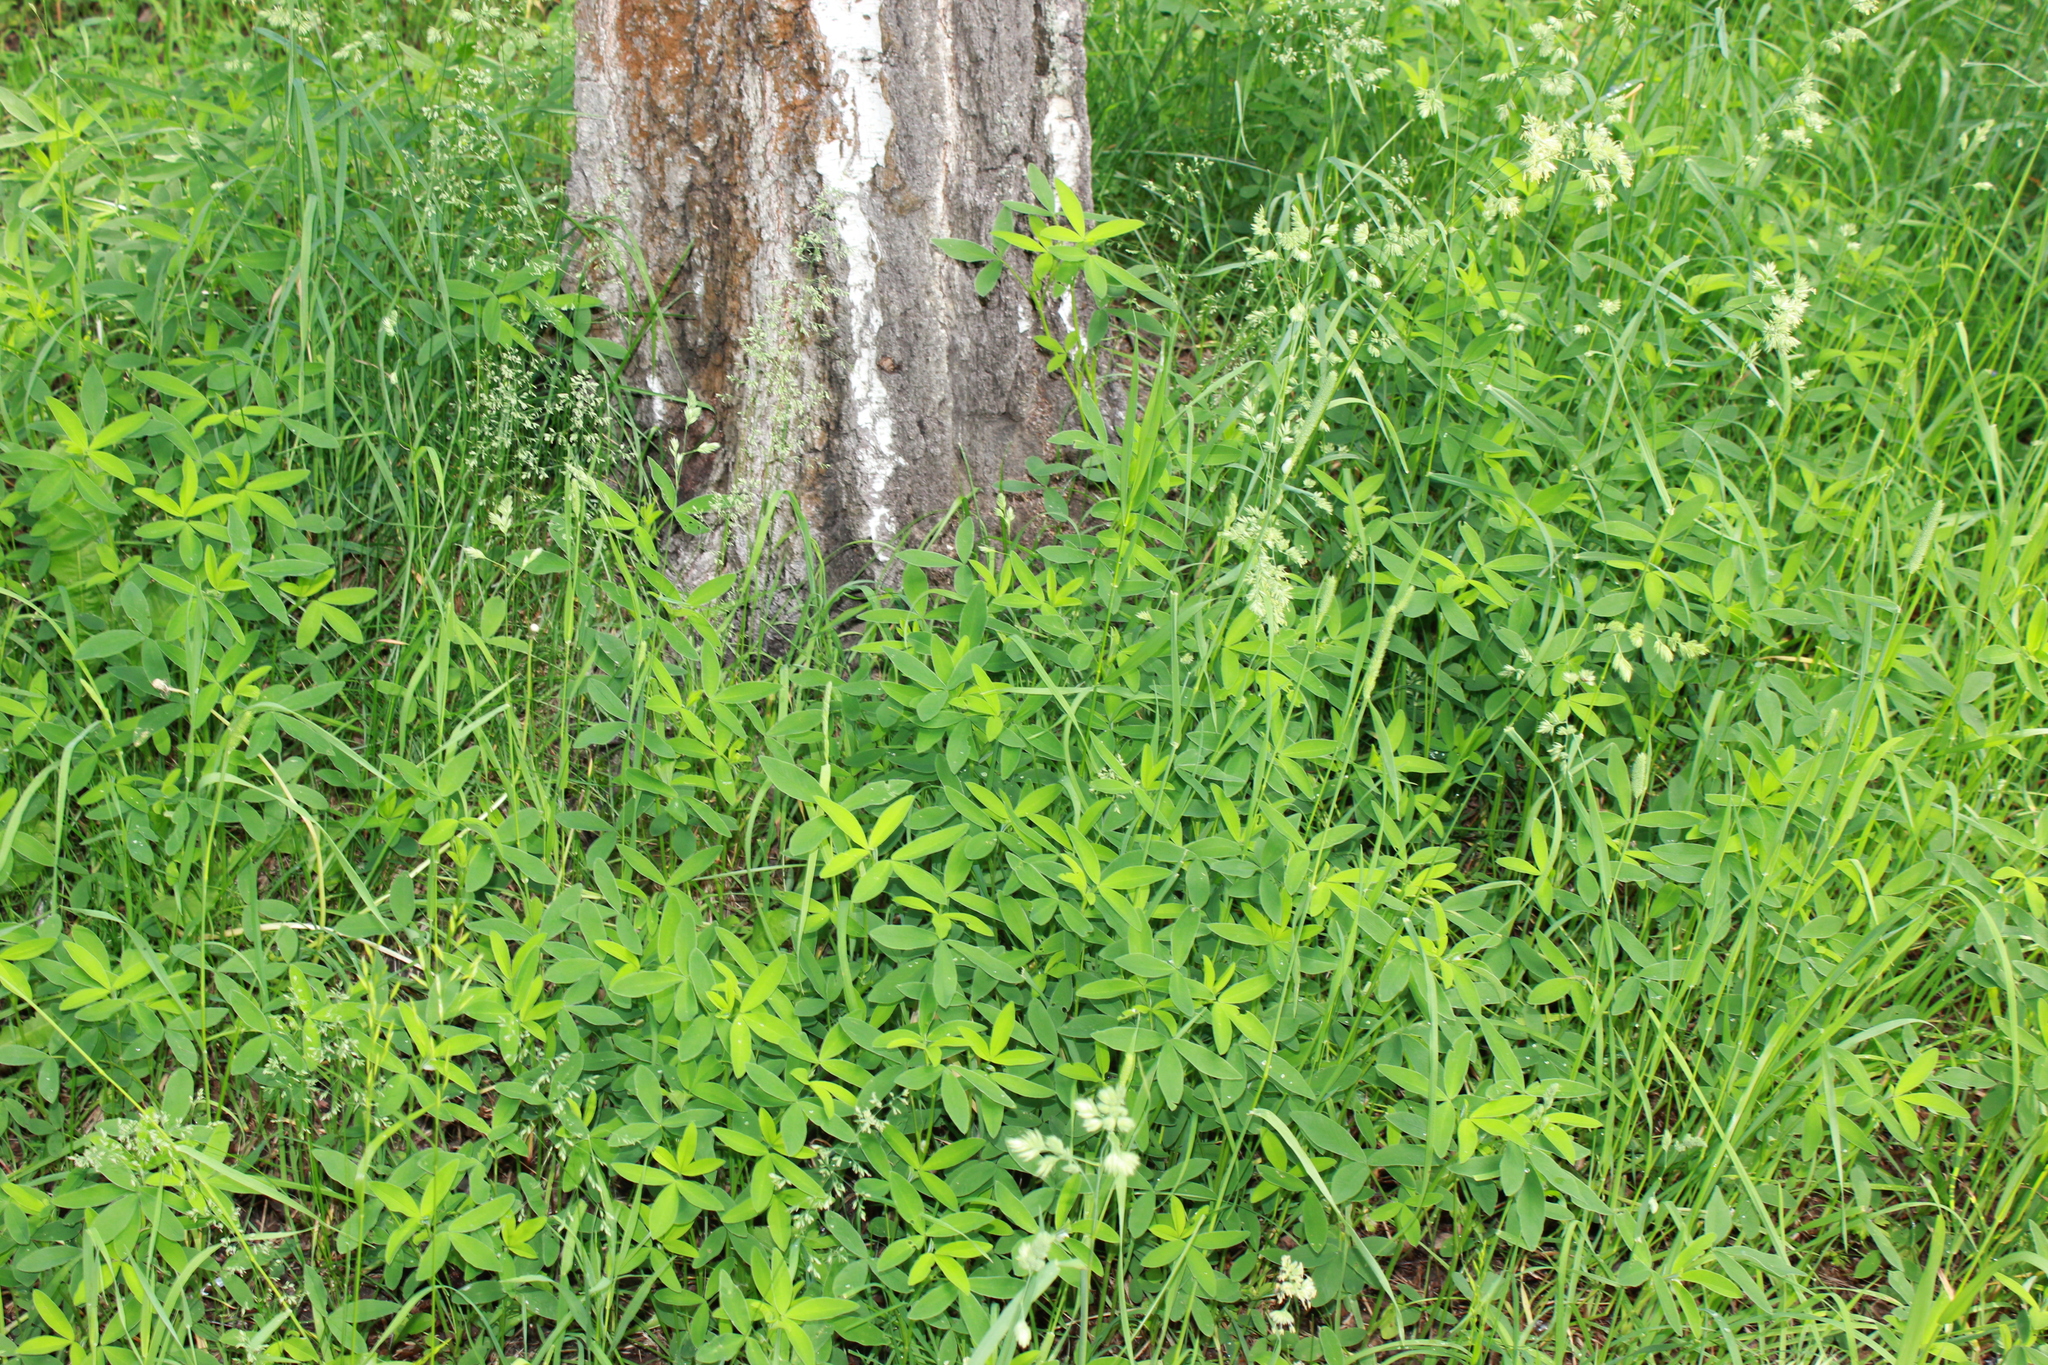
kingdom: Plantae
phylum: Tracheophyta
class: Magnoliopsida
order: Fabales
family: Fabaceae
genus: Trifolium
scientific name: Trifolium medium
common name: Zigzag clover
